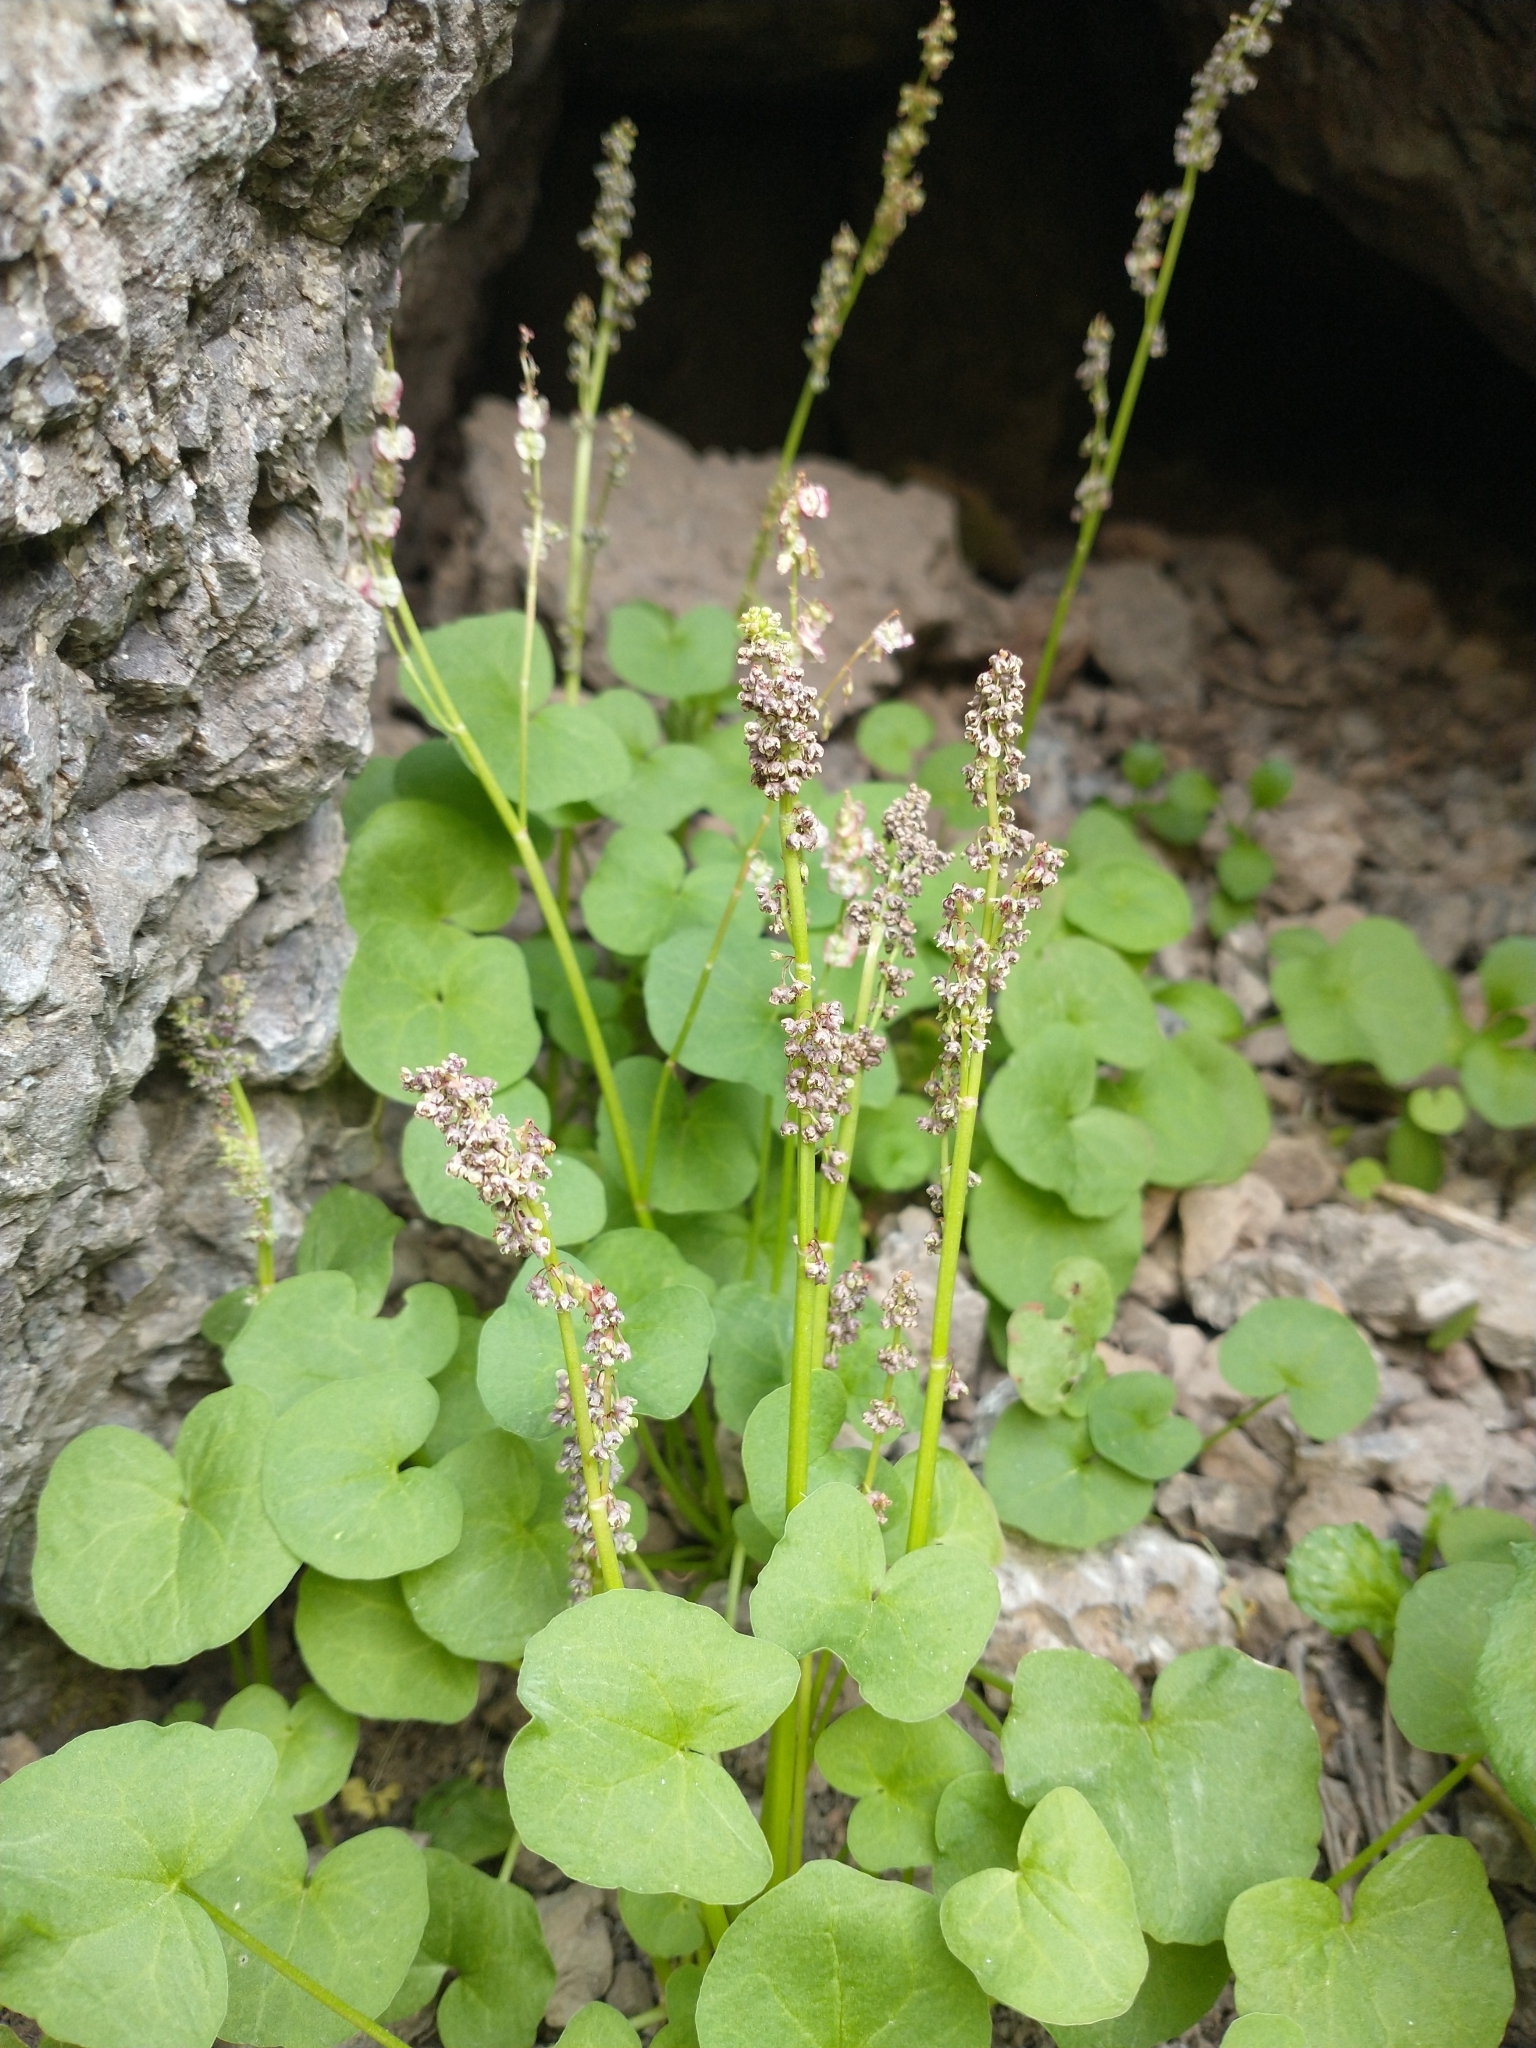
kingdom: Plantae
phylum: Tracheophyta
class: Magnoliopsida
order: Caryophyllales
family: Polygonaceae
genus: Oxyria
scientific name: Oxyria digyna
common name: Alpine mountain-sorrel
